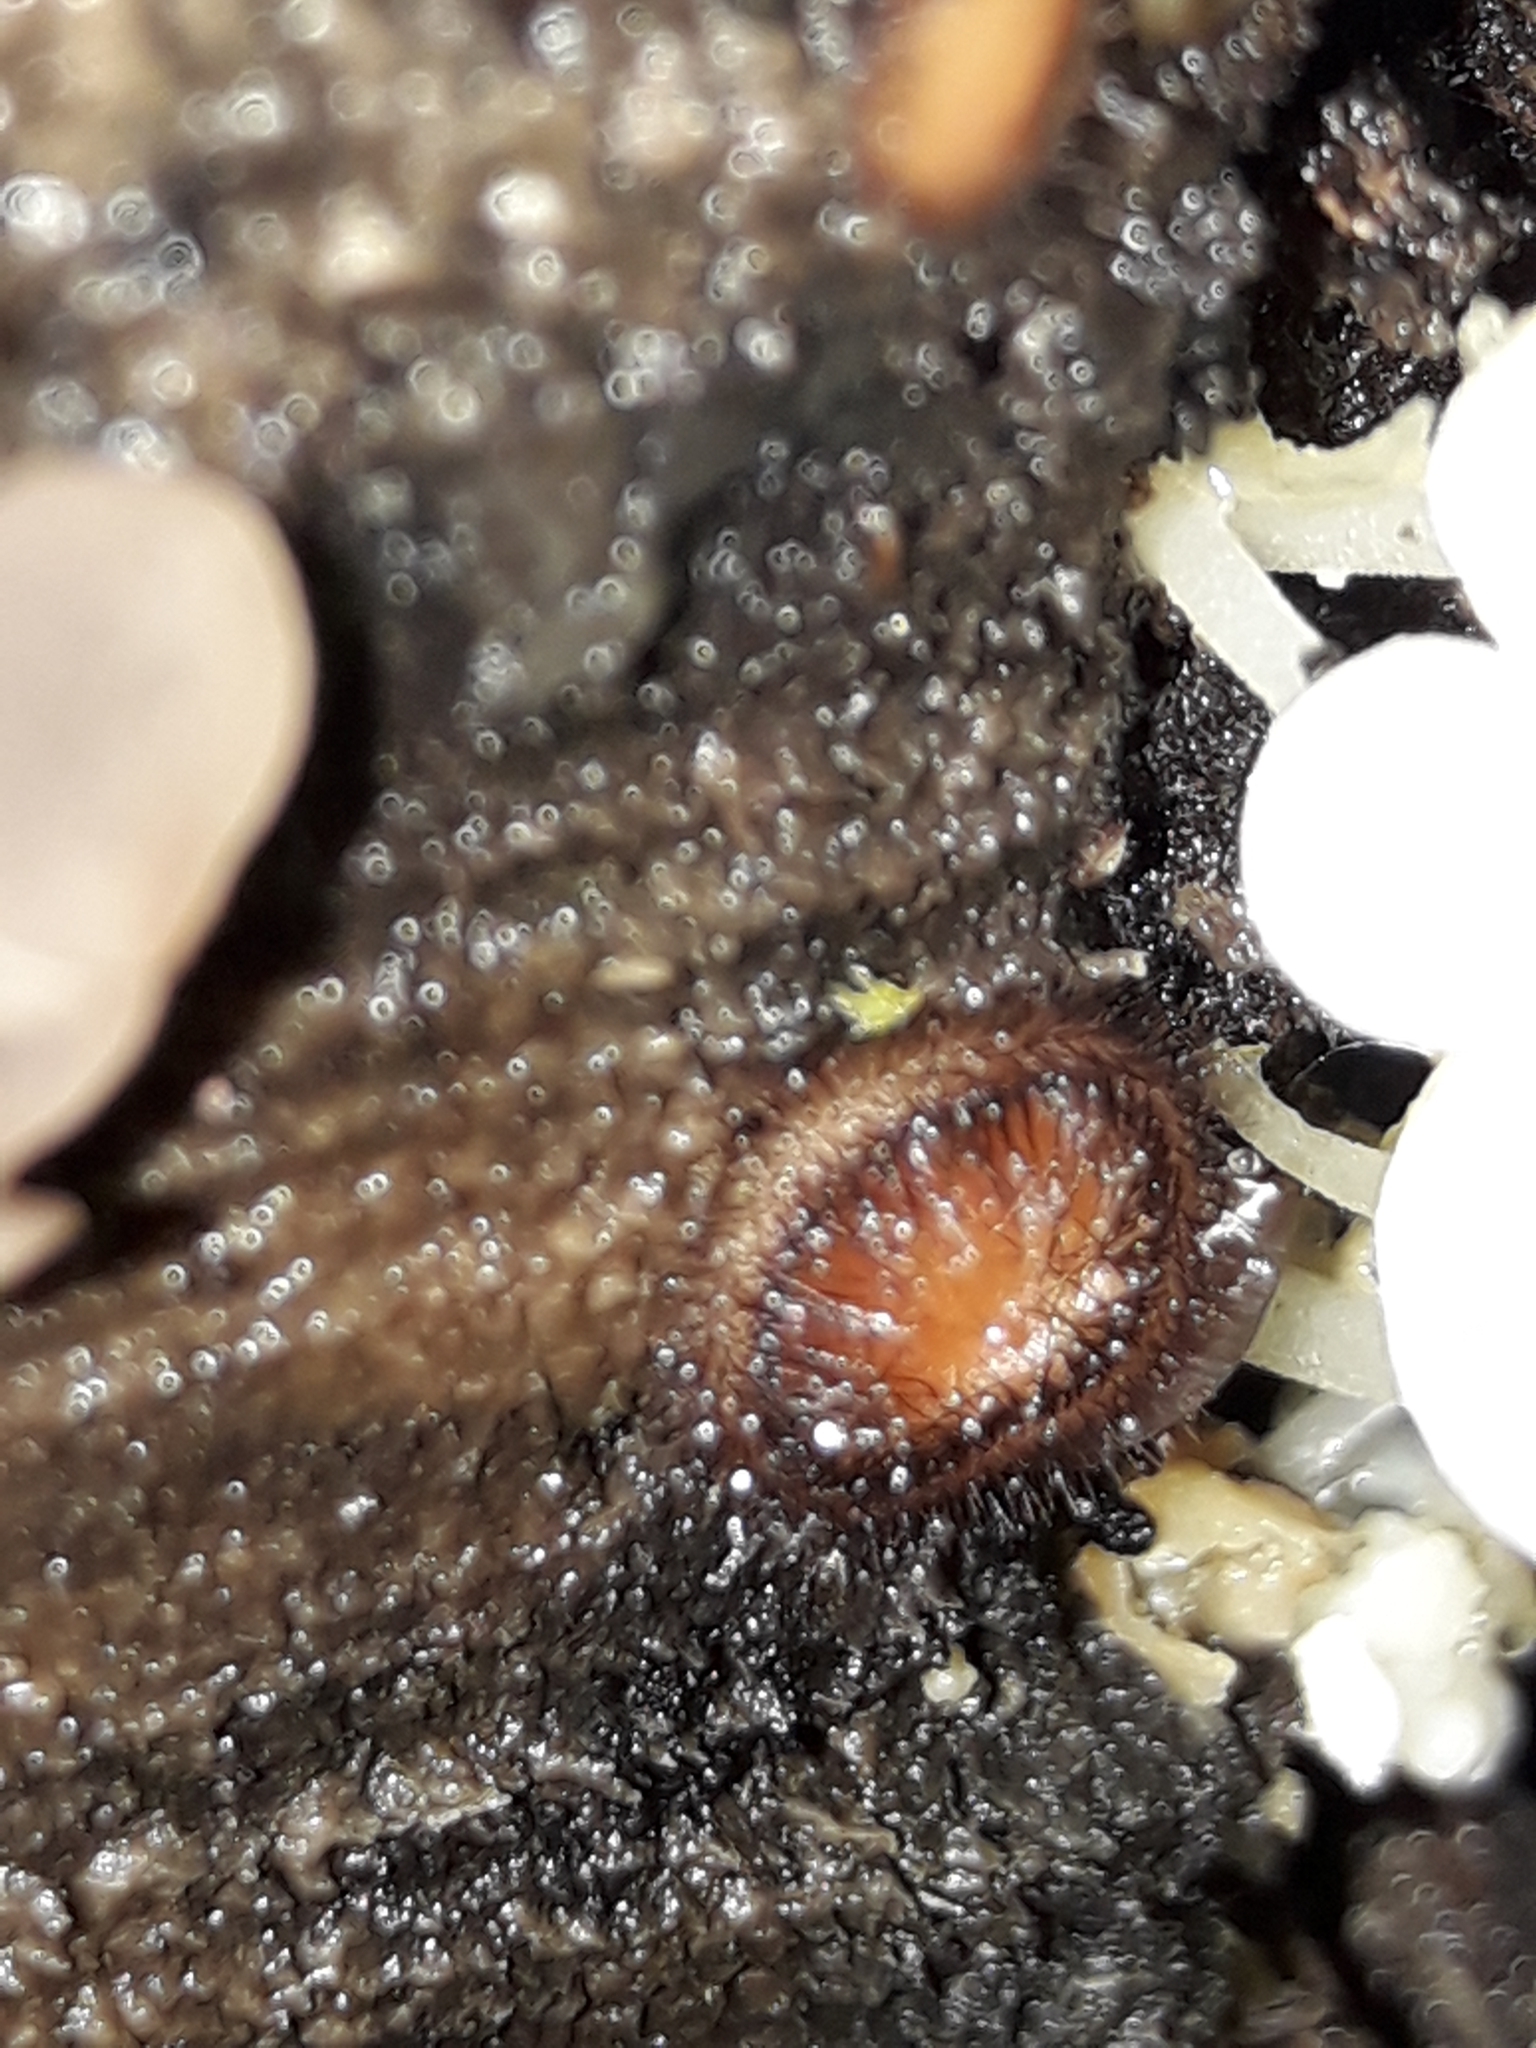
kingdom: Fungi
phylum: Ascomycota
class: Pezizomycetes
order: Pezizales
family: Pyronemataceae
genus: Scutellinia
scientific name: Scutellinia
